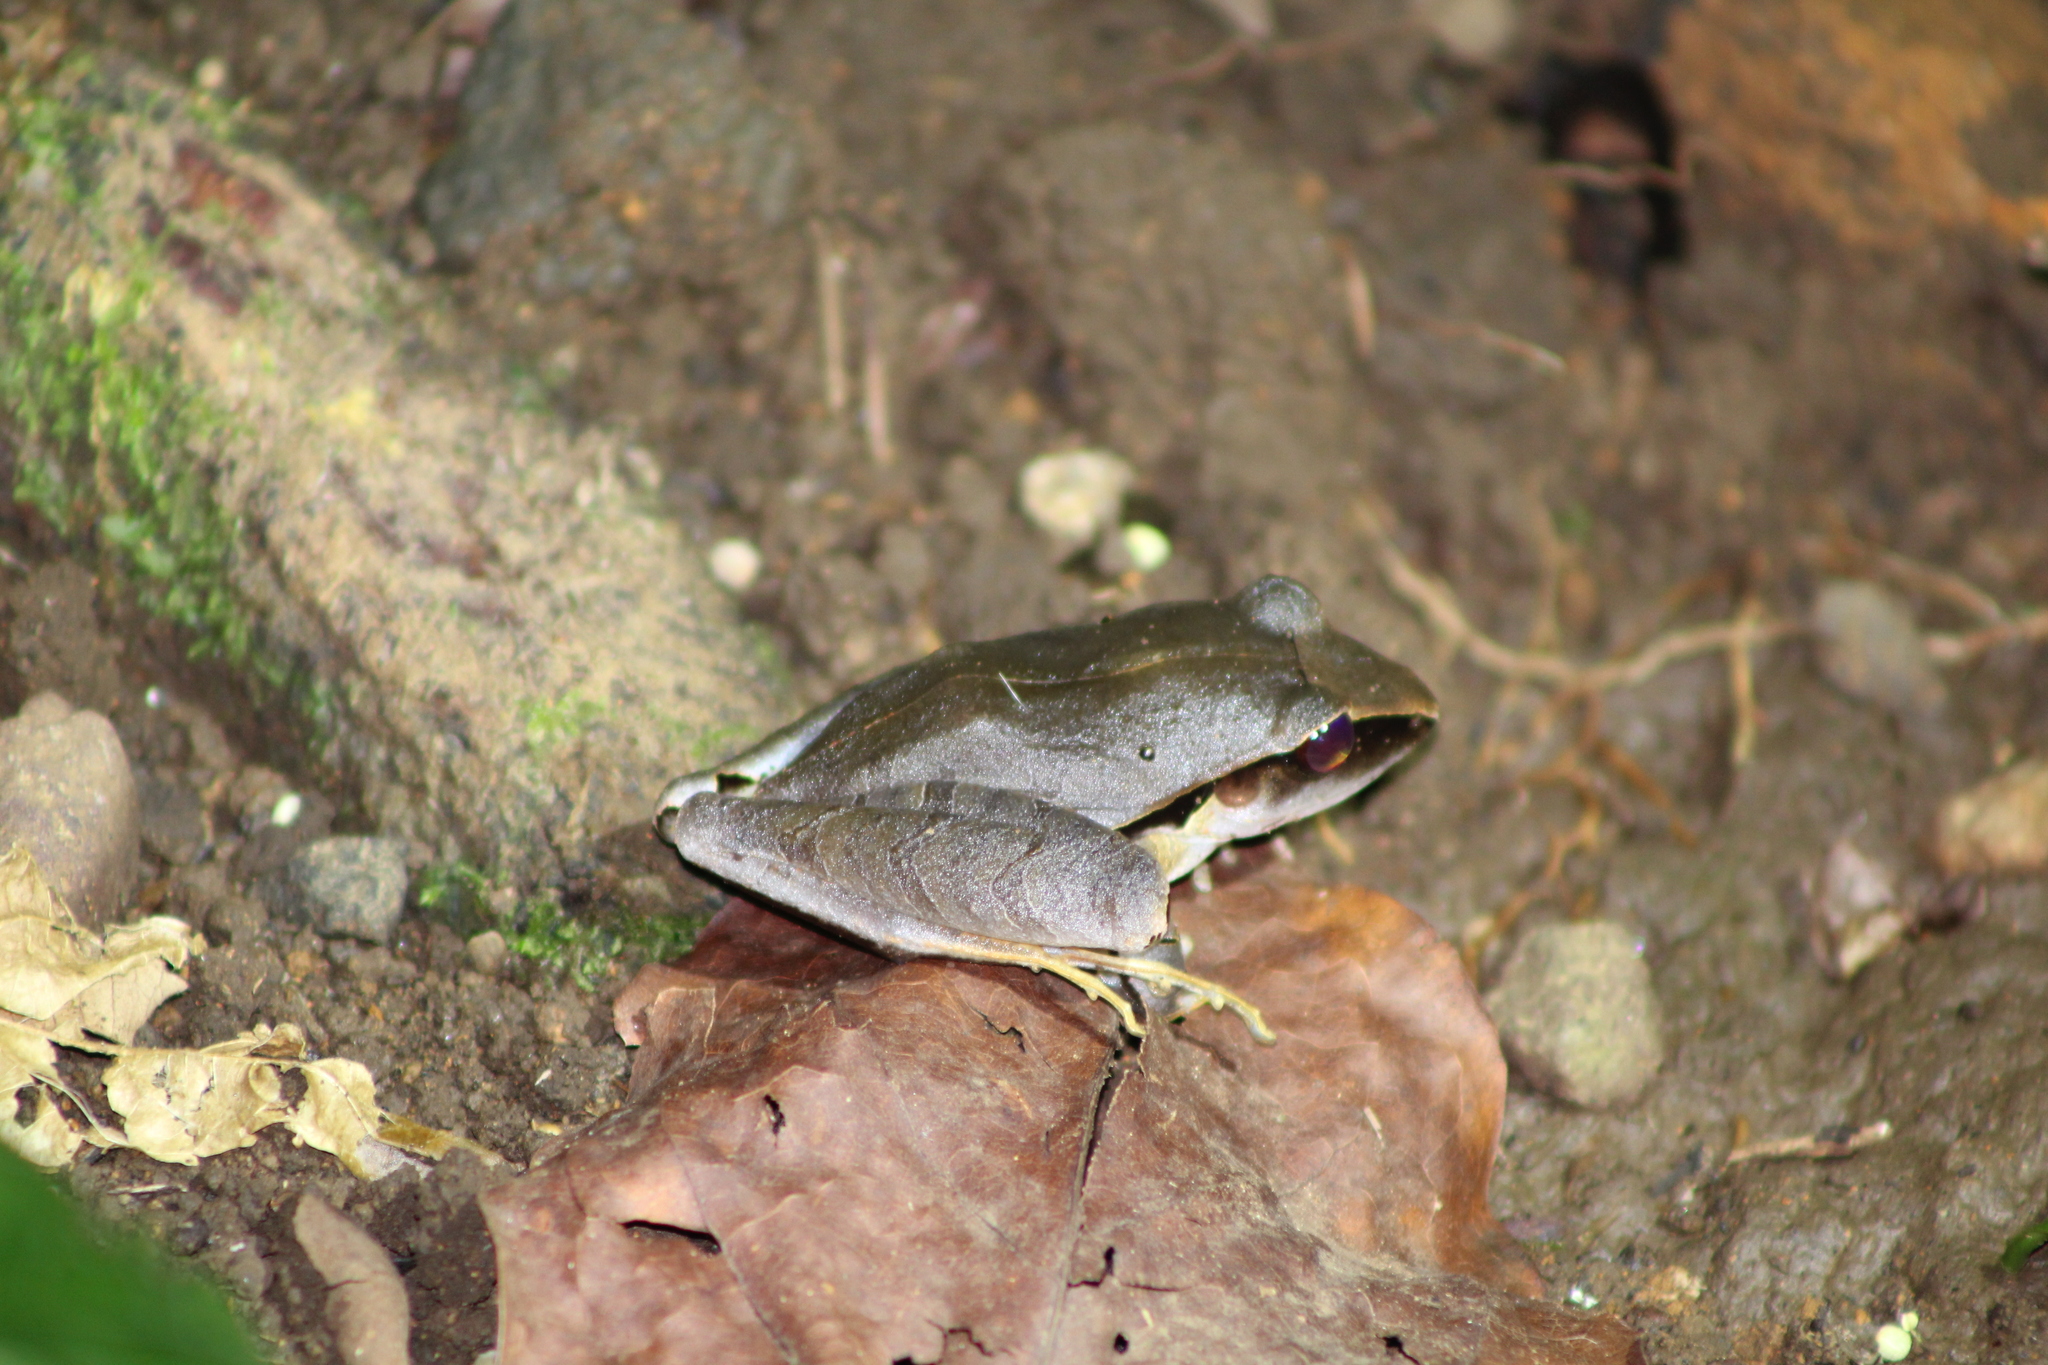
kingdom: Animalia
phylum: Chordata
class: Amphibia
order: Anura
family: Craugastoridae
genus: Craugastor
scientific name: Craugastor mimus
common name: Tilaran robber frog
